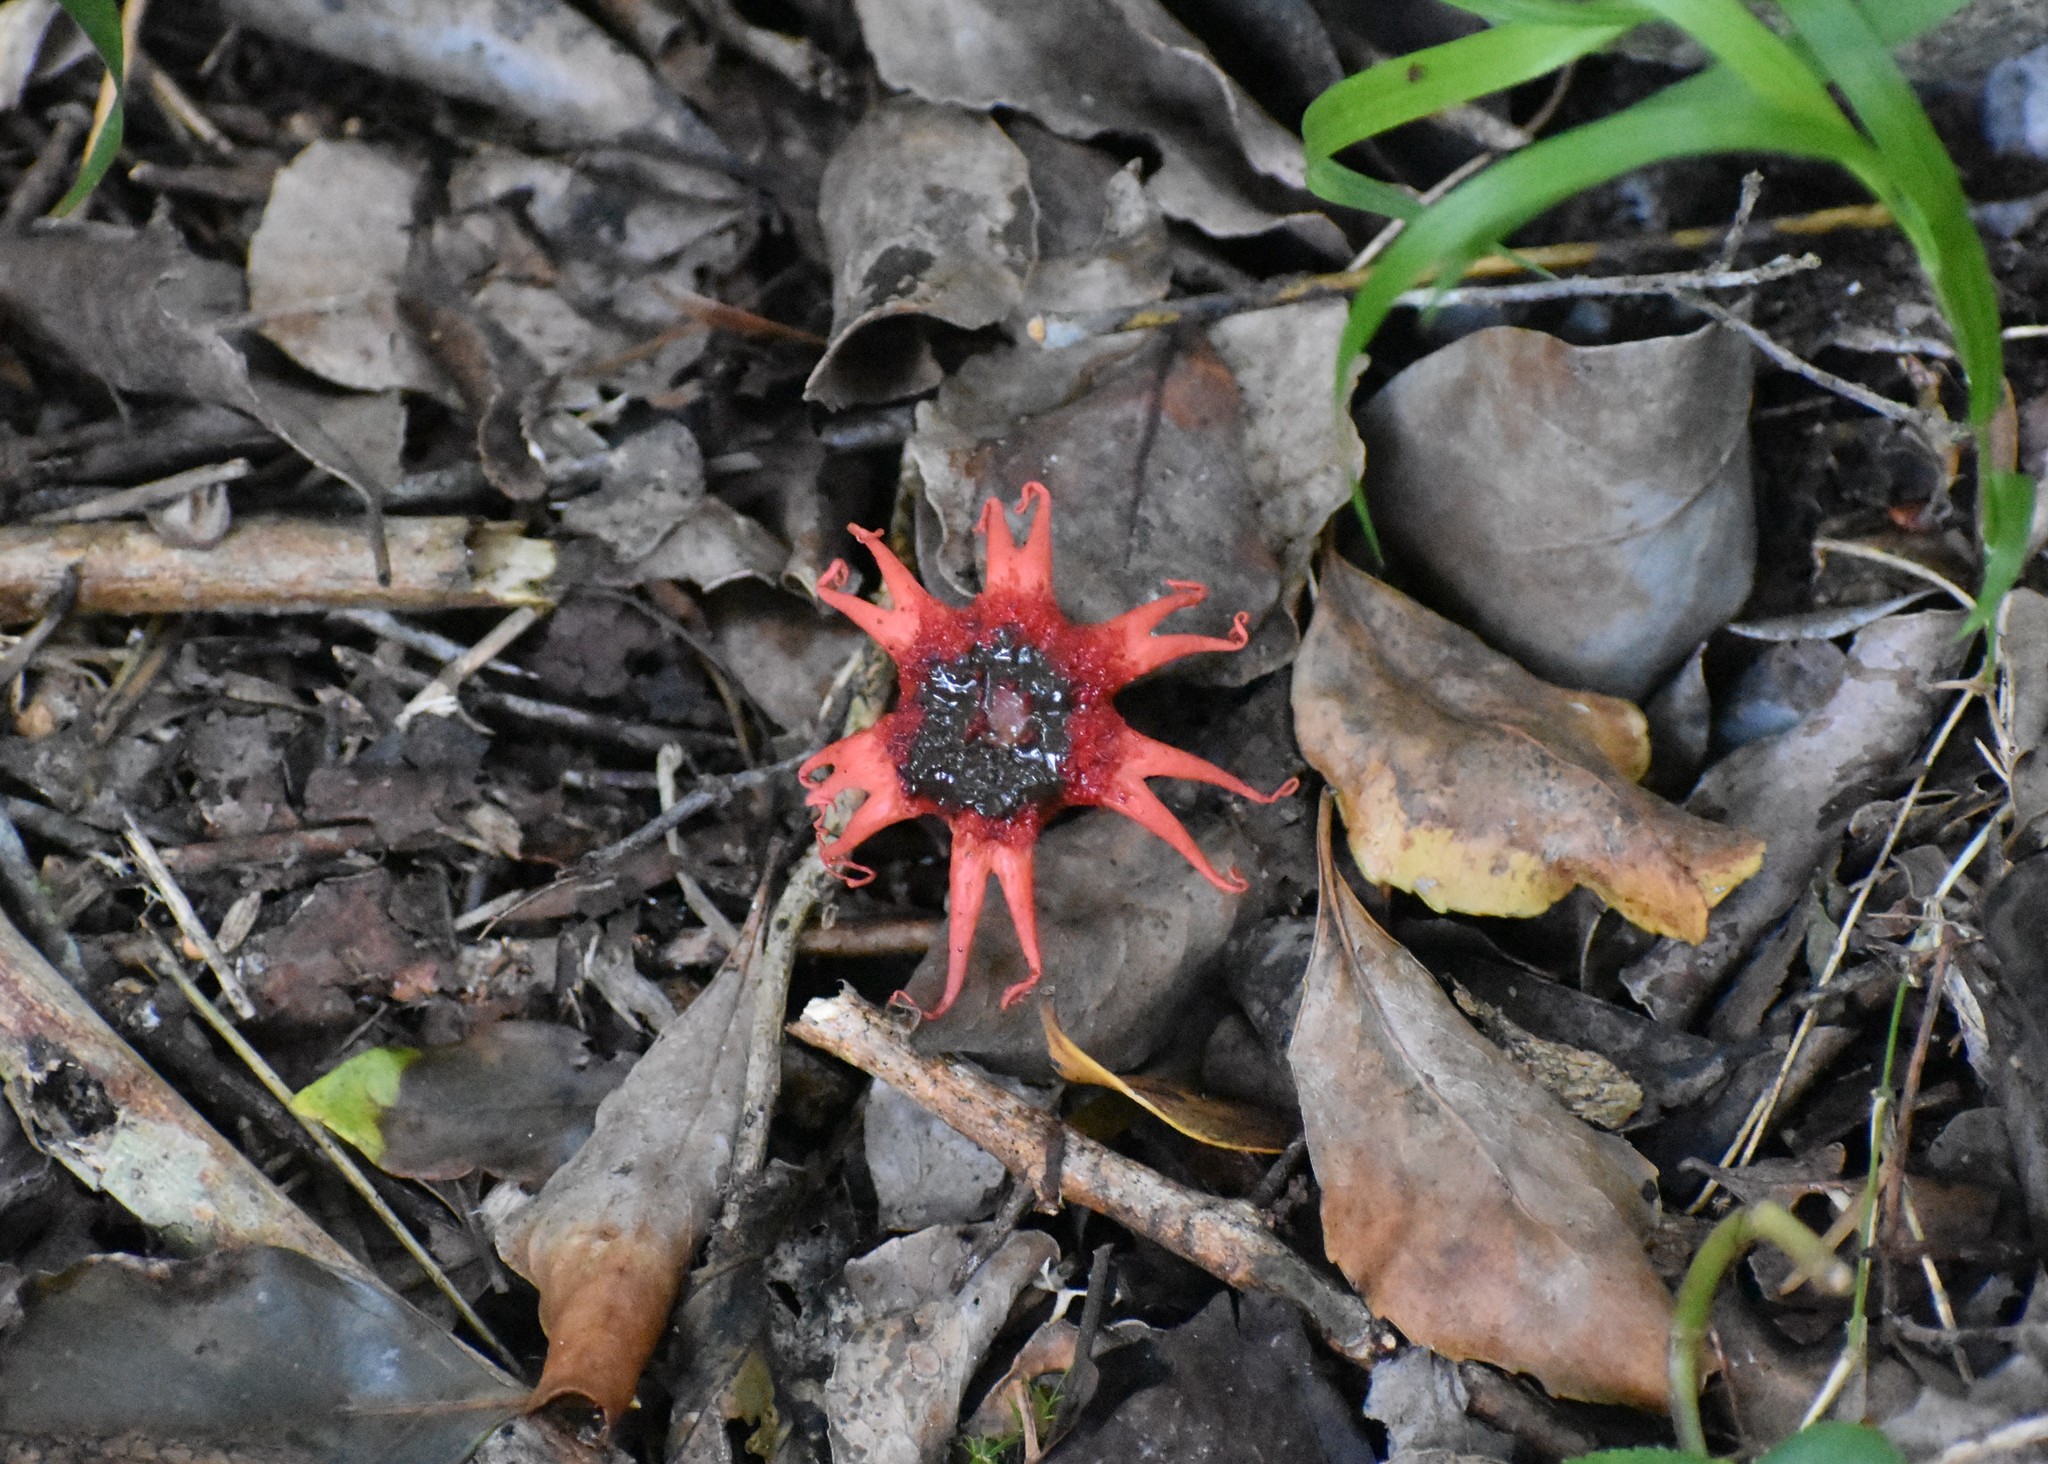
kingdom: Fungi
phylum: Basidiomycota
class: Agaricomycetes
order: Phallales
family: Phallaceae
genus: Aseroe
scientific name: Aseroe rubra
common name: Starfish fungus
